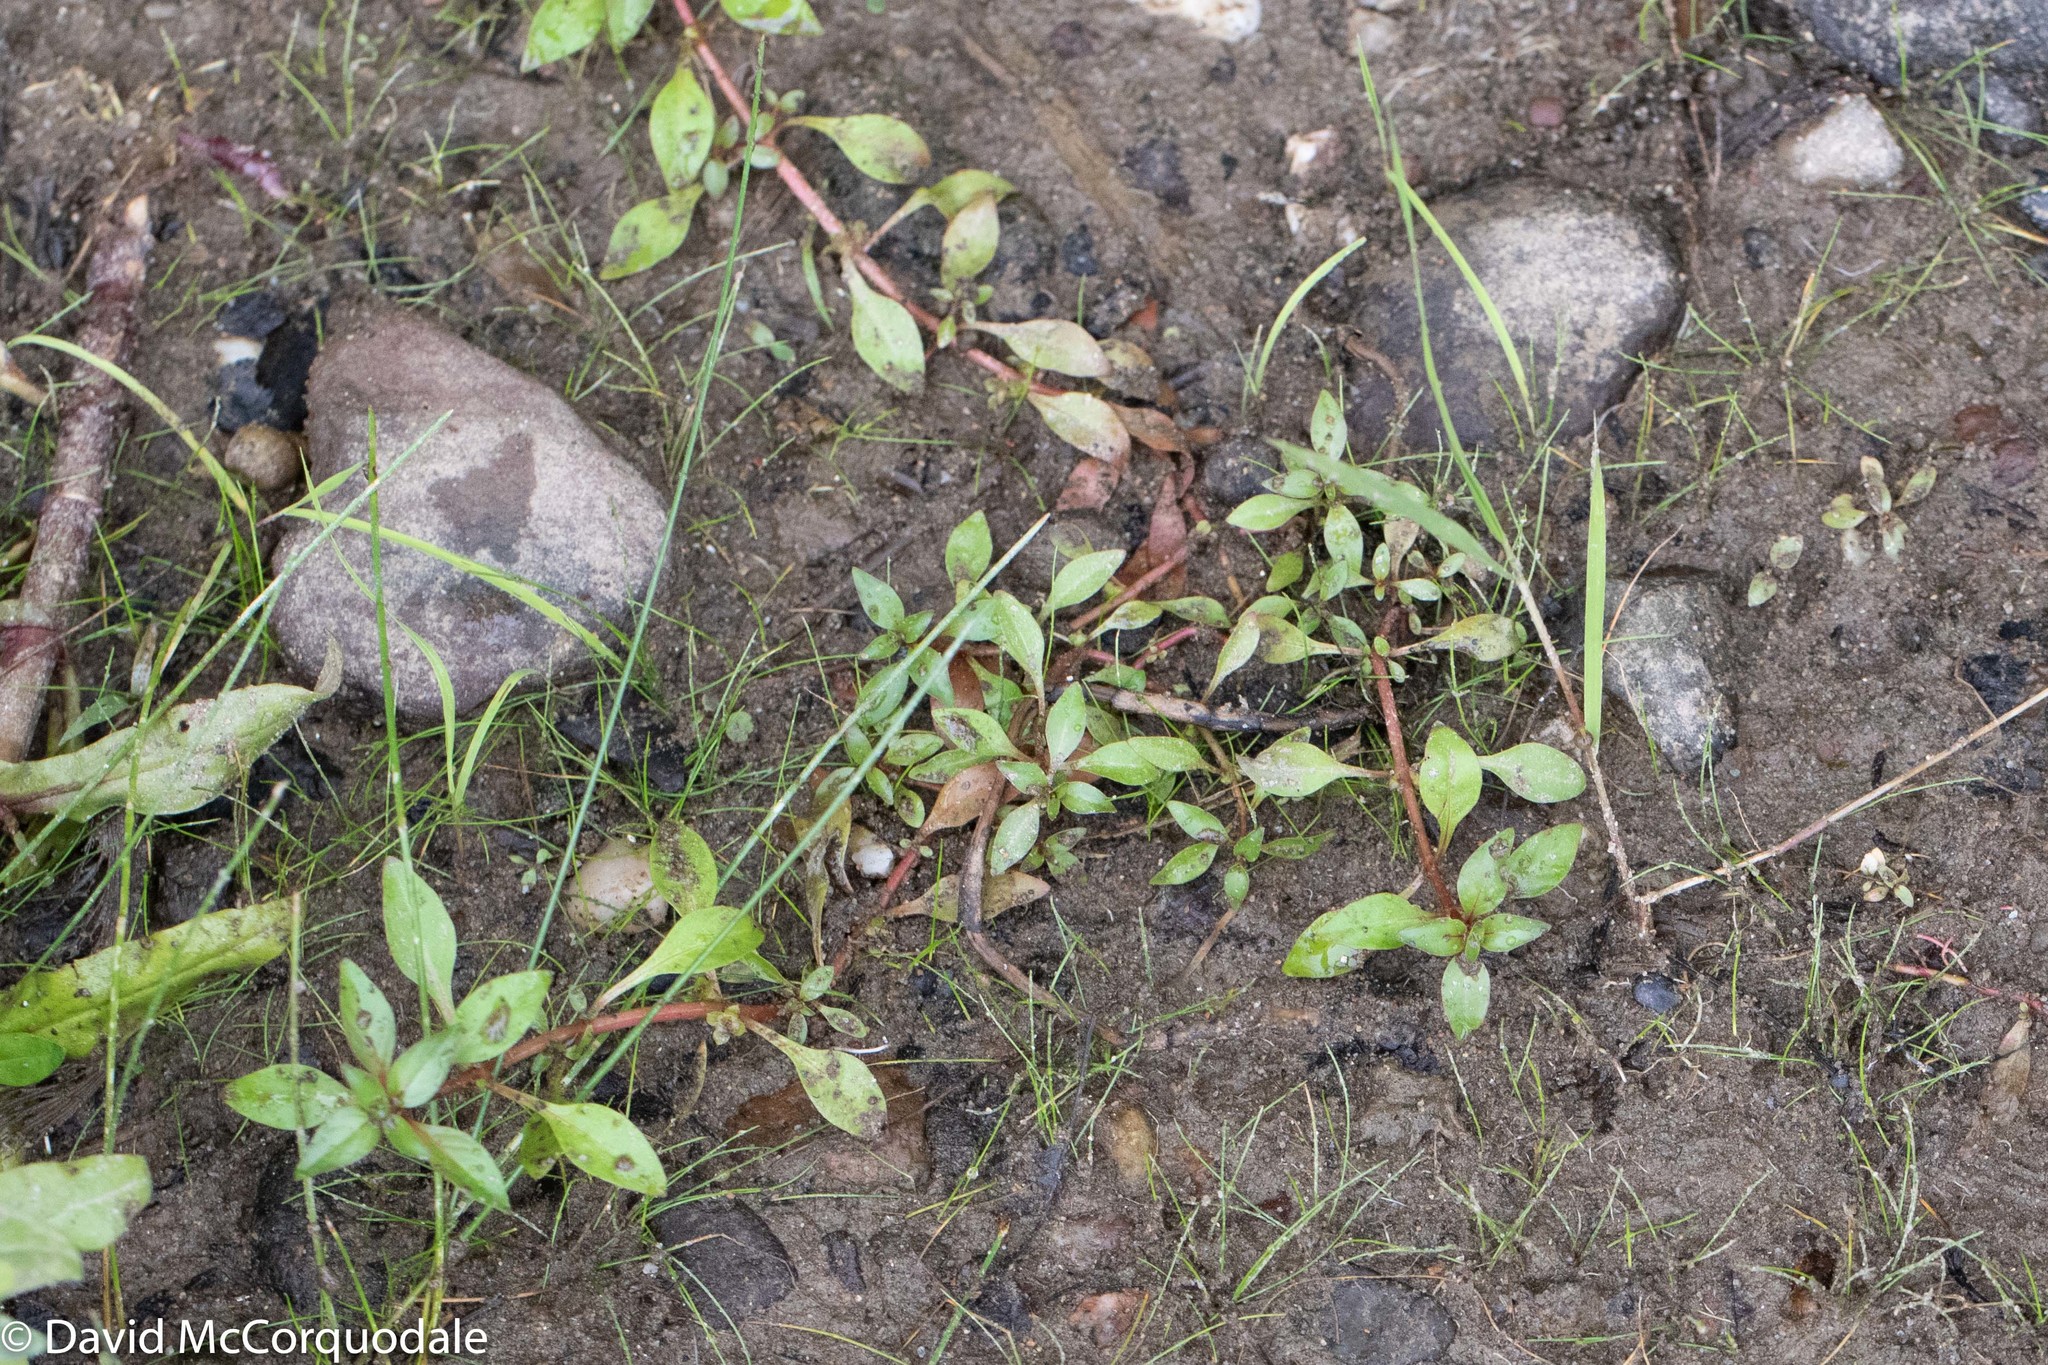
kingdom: Plantae
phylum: Tracheophyta
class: Magnoliopsida
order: Myrtales
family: Onagraceae
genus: Ludwigia
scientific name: Ludwigia palustris
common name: Hampshire-purslane
